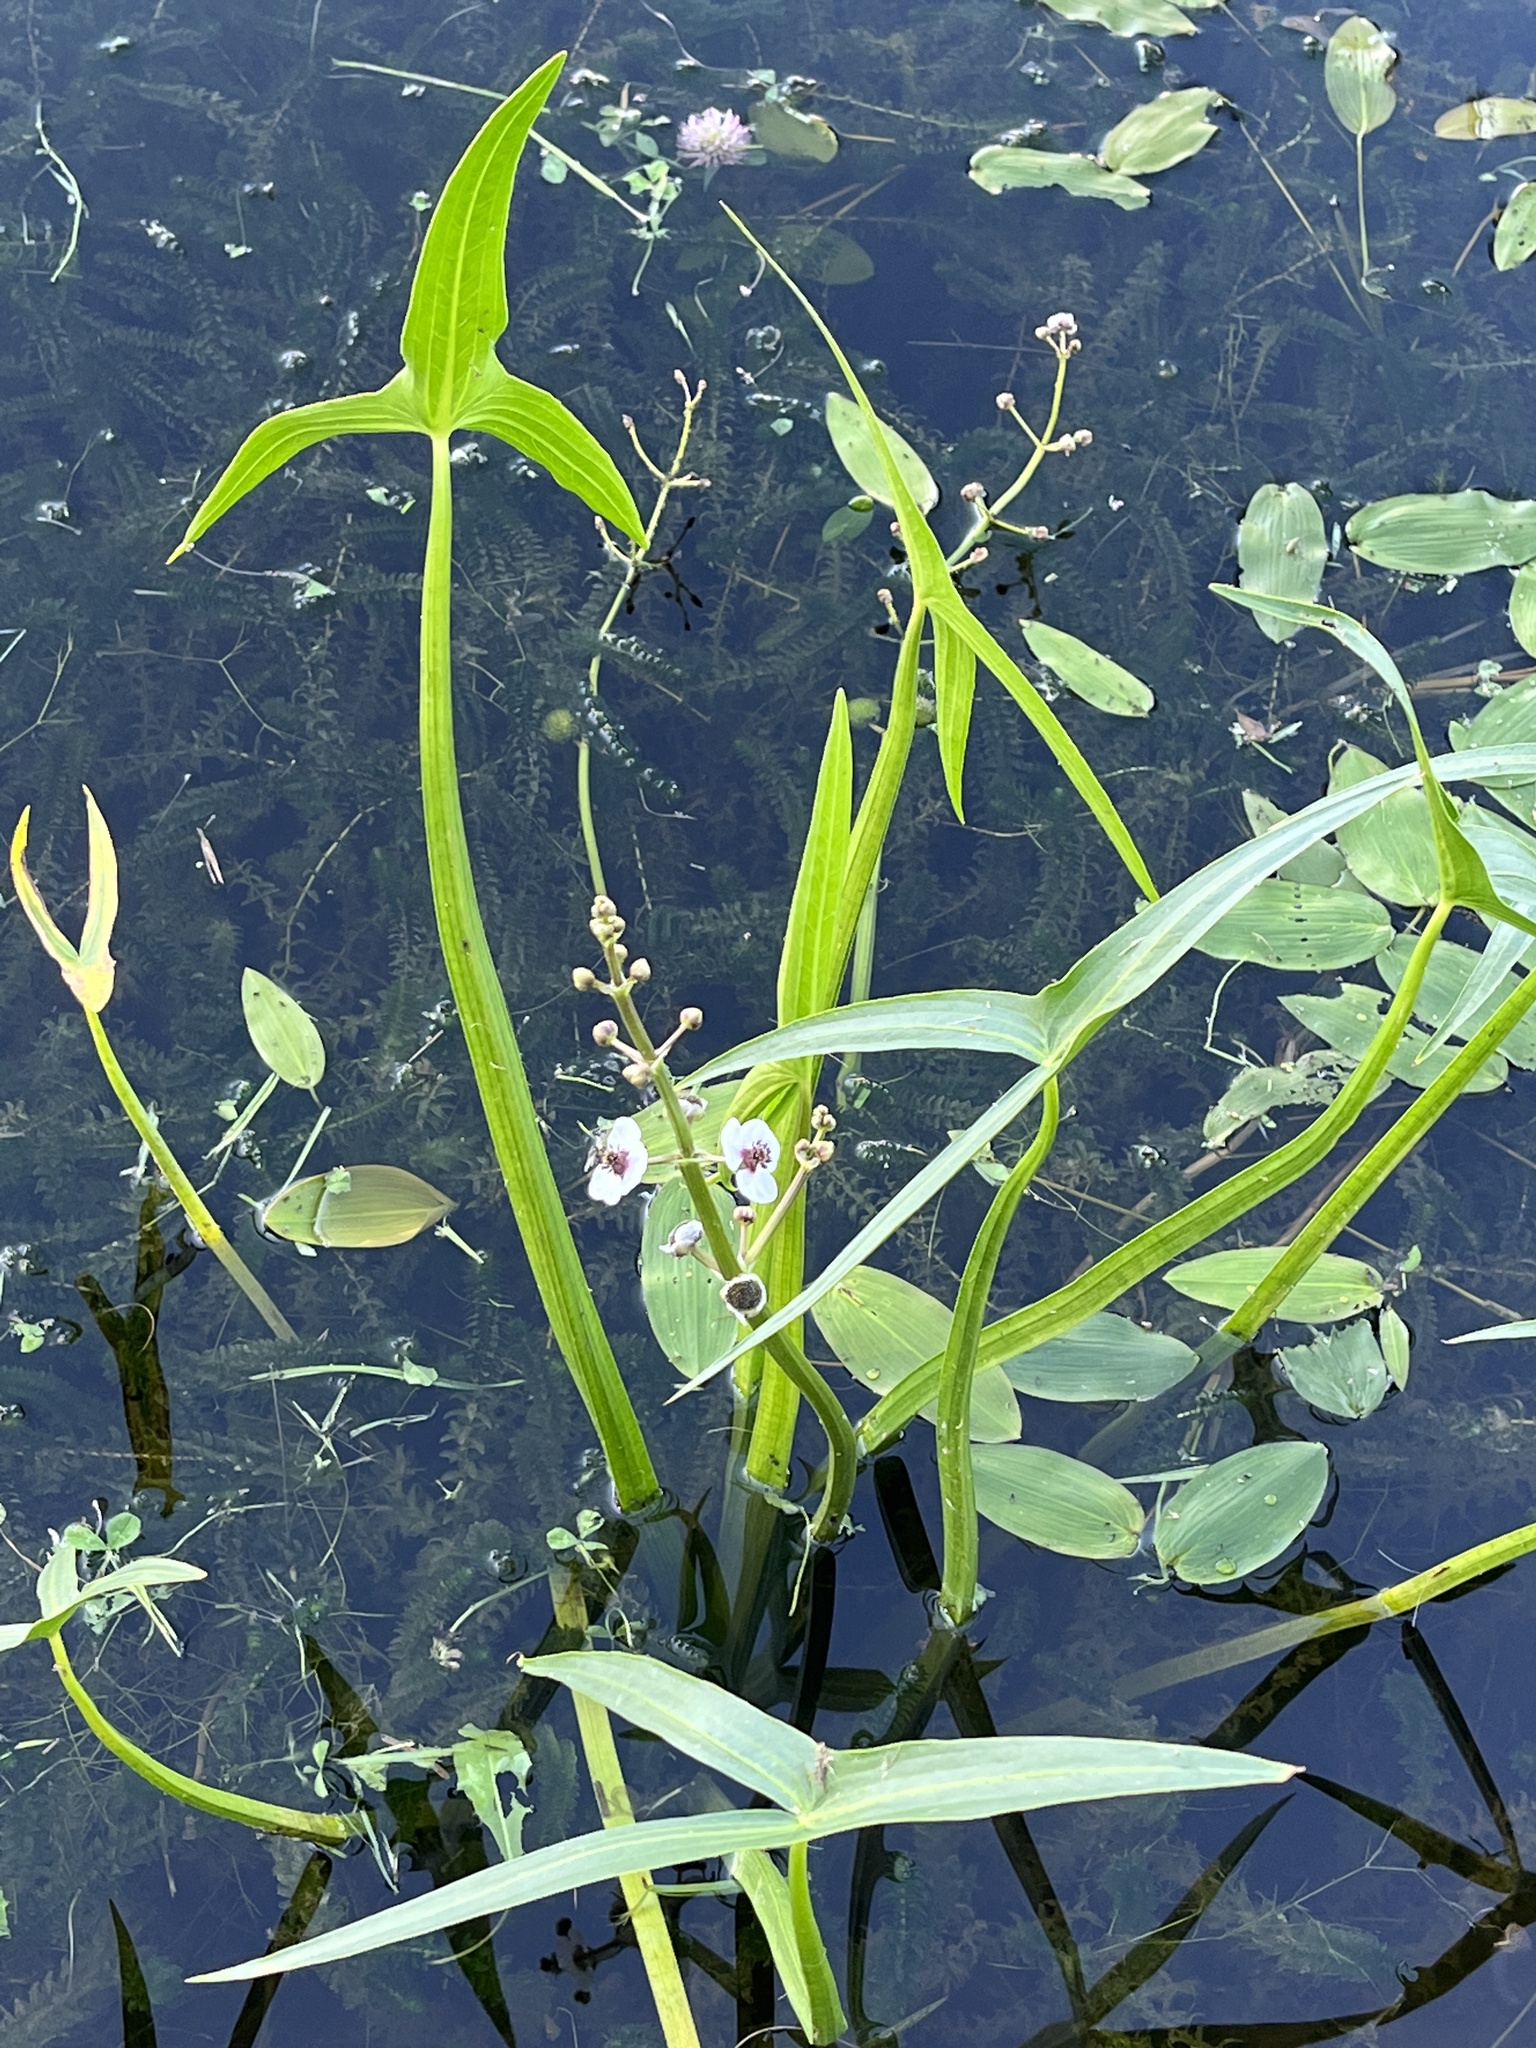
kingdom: Plantae
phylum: Tracheophyta
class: Liliopsida
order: Alismatales
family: Alismataceae
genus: Sagittaria
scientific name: Sagittaria sagittifolia
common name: Arrowhead
